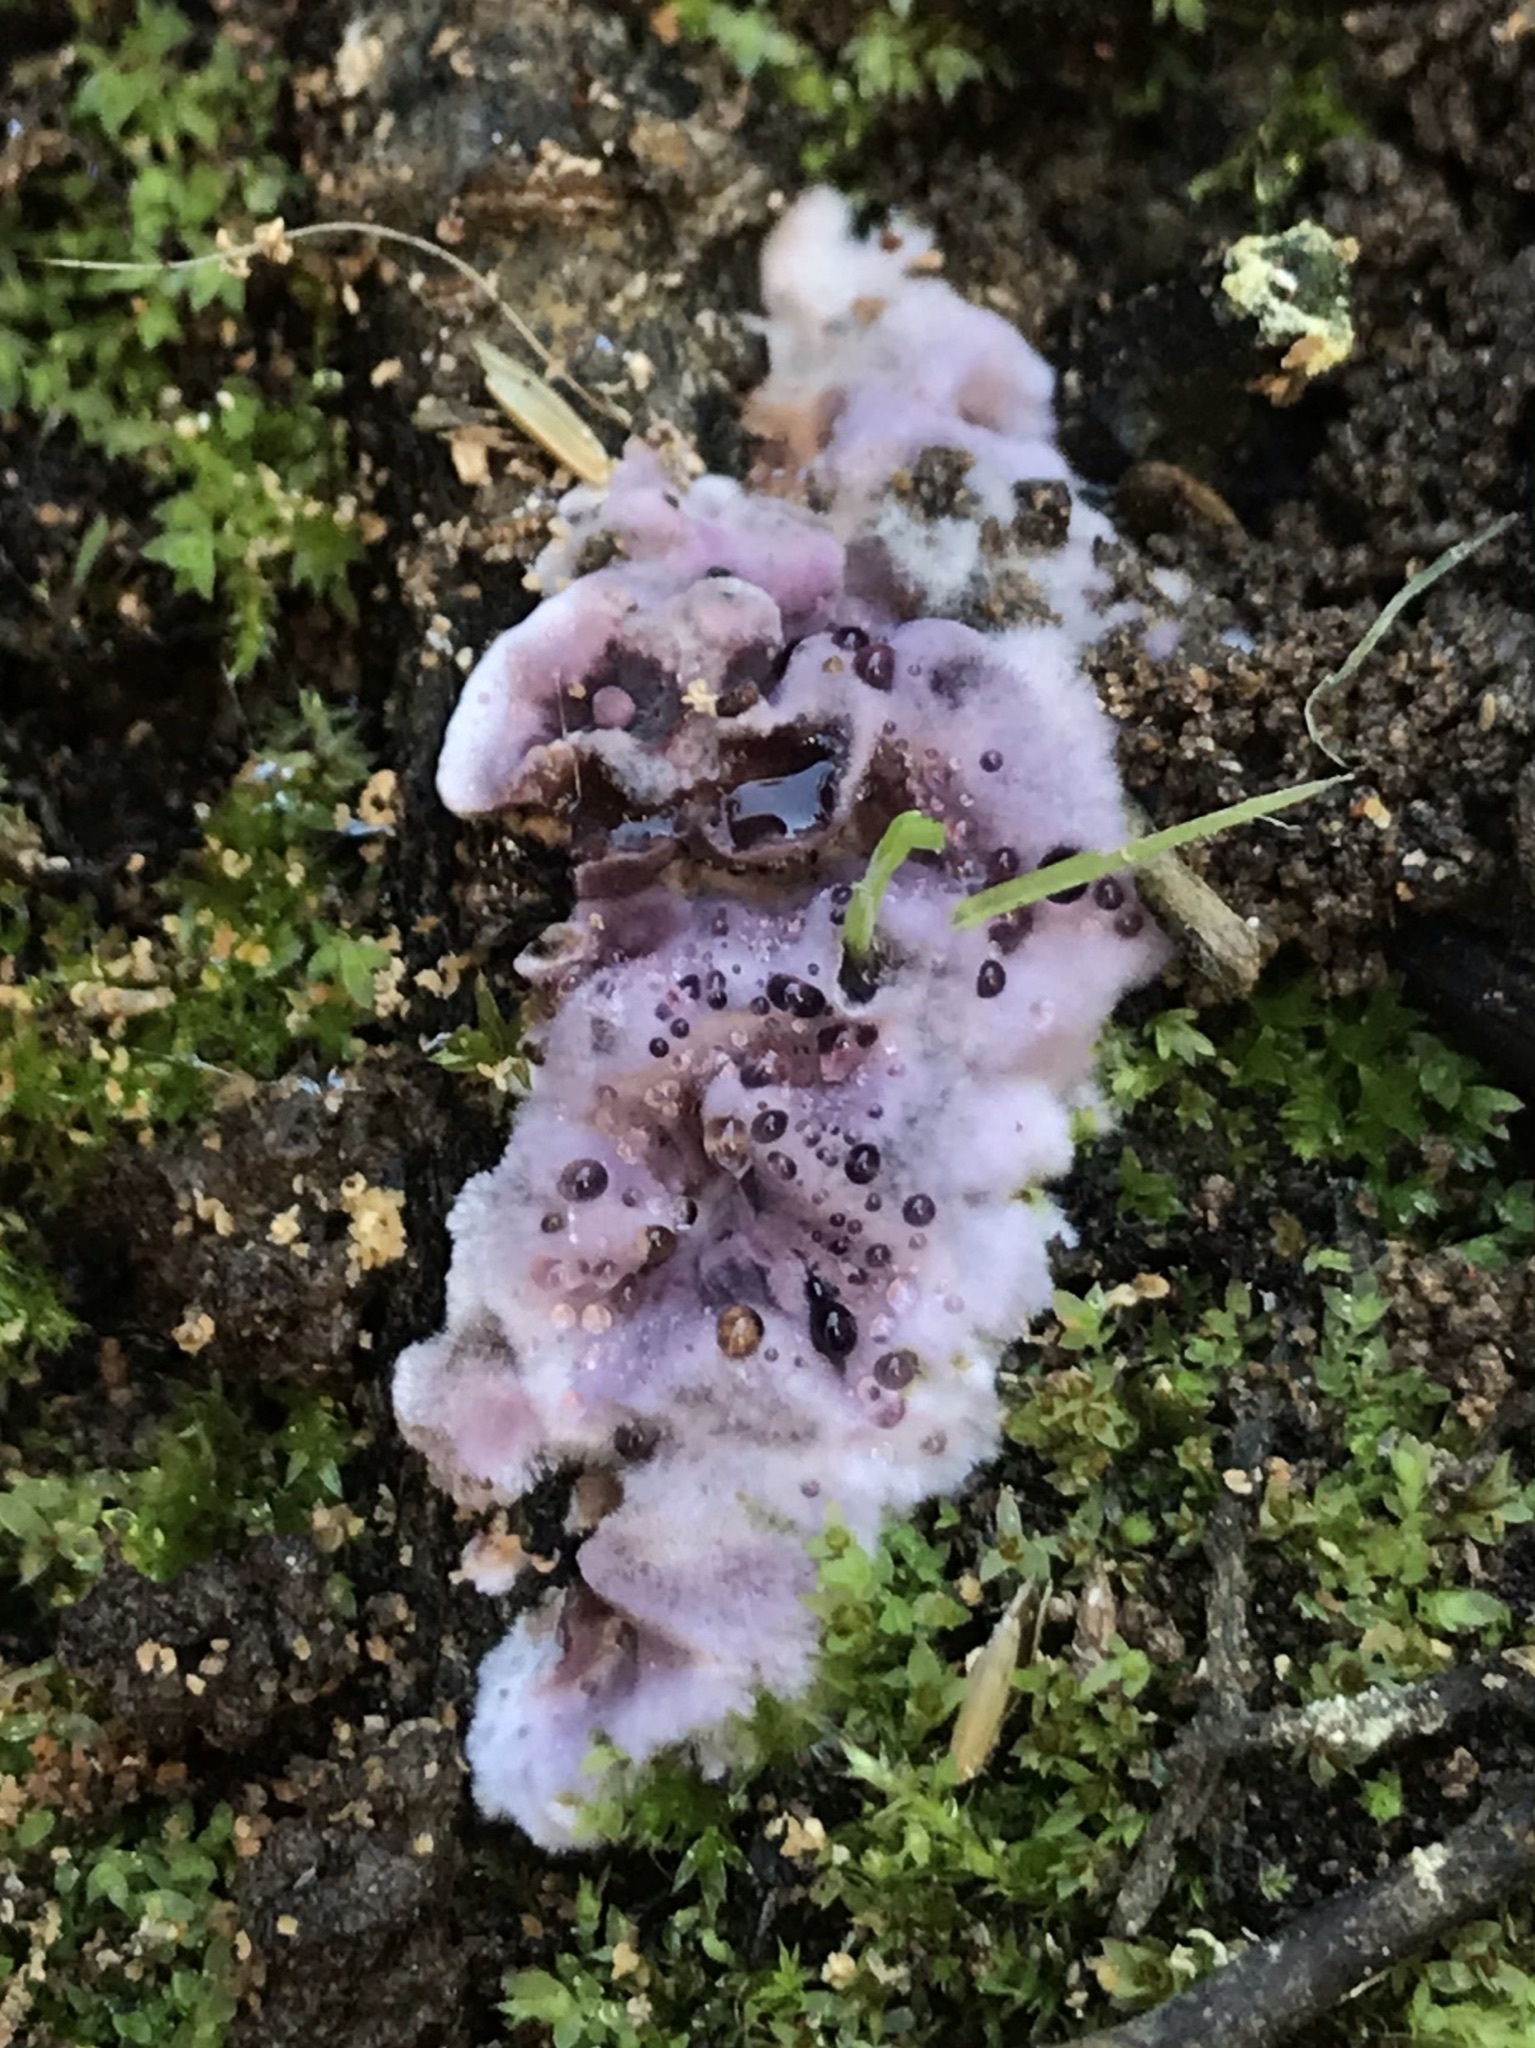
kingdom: Fungi
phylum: Basidiomycota
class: Agaricomycetes
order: Corticiales
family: Punctulariaceae
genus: Punctularia
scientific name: Punctularia atropurpurascens
